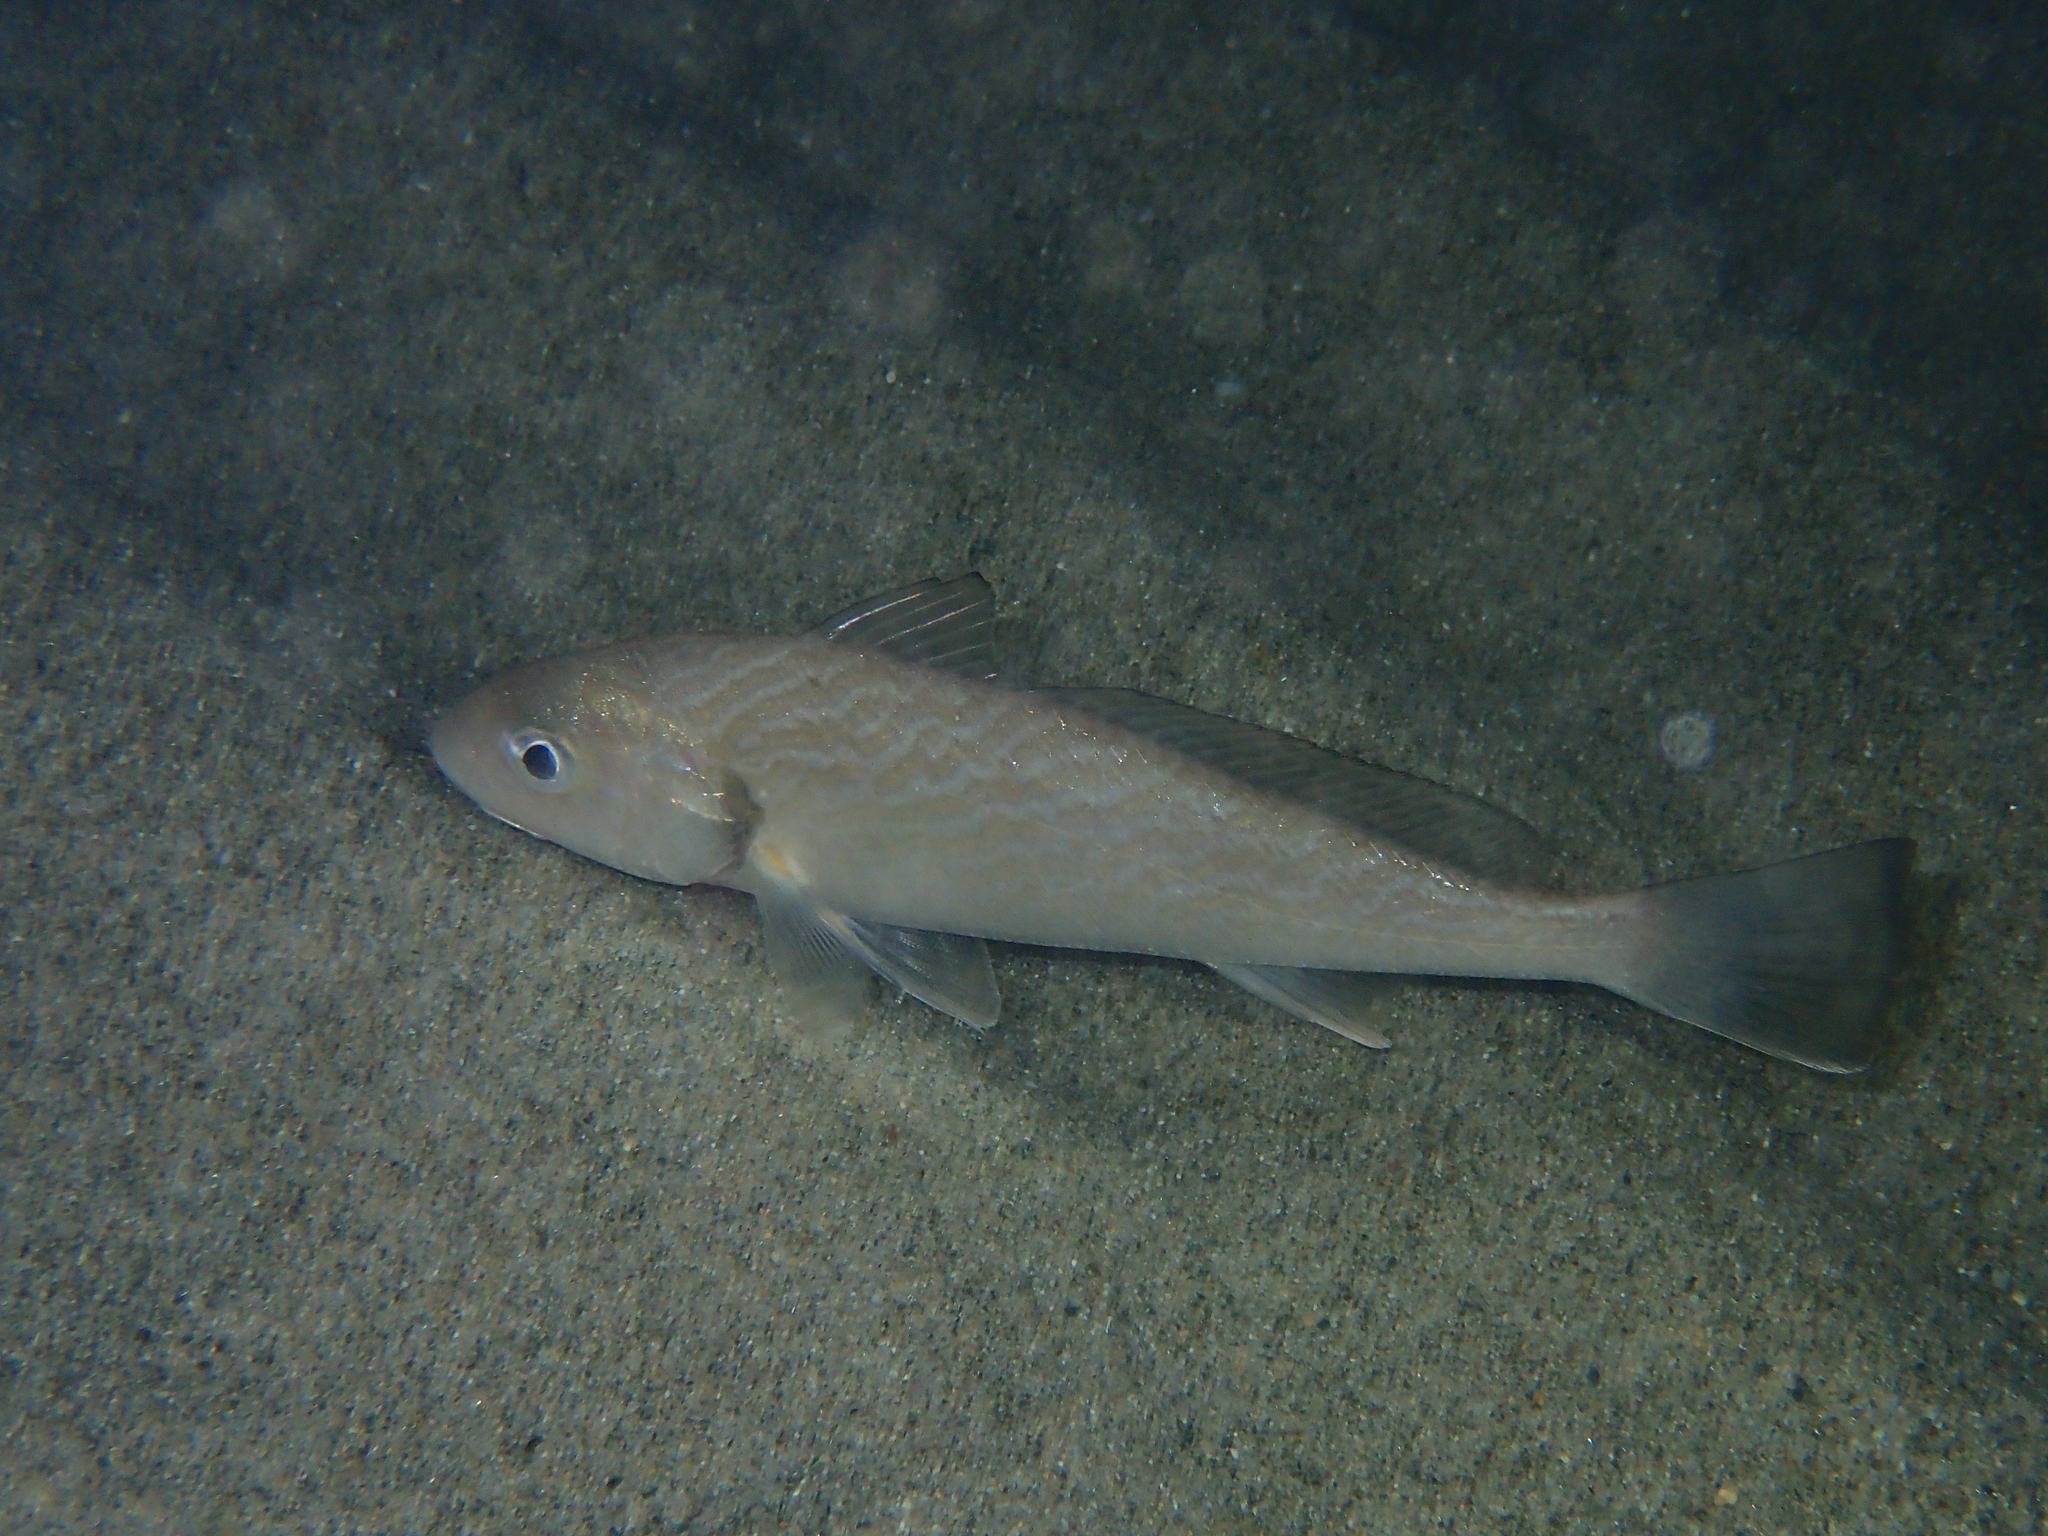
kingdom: Animalia
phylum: Chordata
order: Perciformes
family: Sciaenidae
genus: Umbrina
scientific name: Umbrina cirrosa
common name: Shi drum
